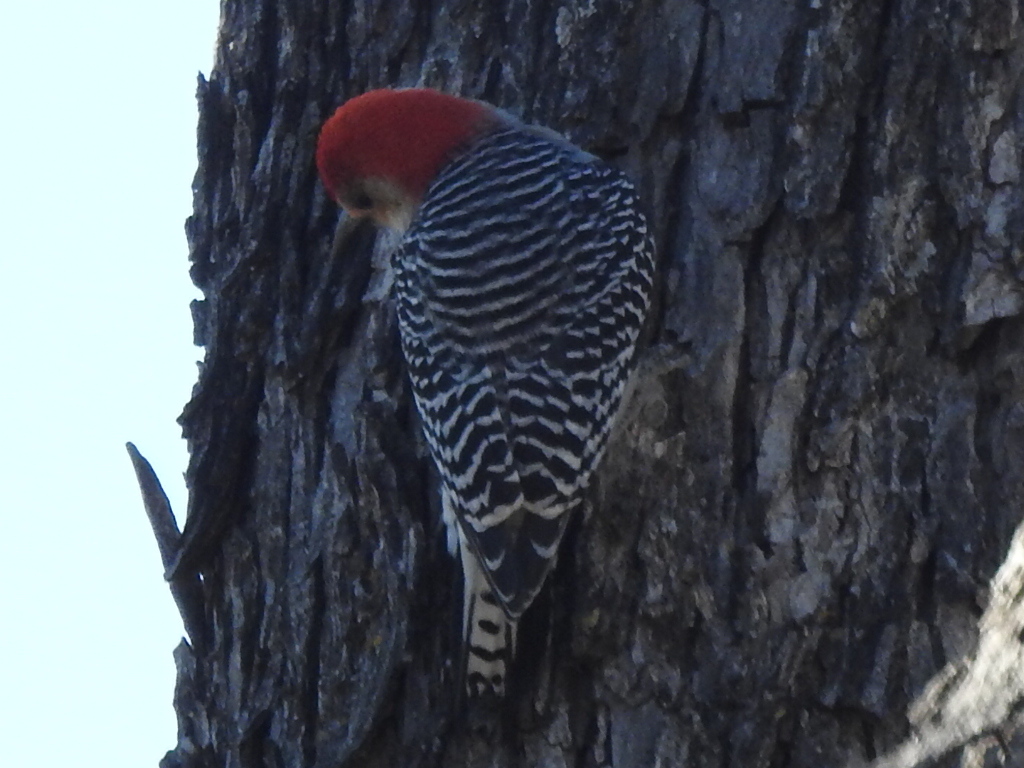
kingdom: Animalia
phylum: Chordata
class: Aves
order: Piciformes
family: Picidae
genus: Melanerpes
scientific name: Melanerpes carolinus
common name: Red-bellied woodpecker
